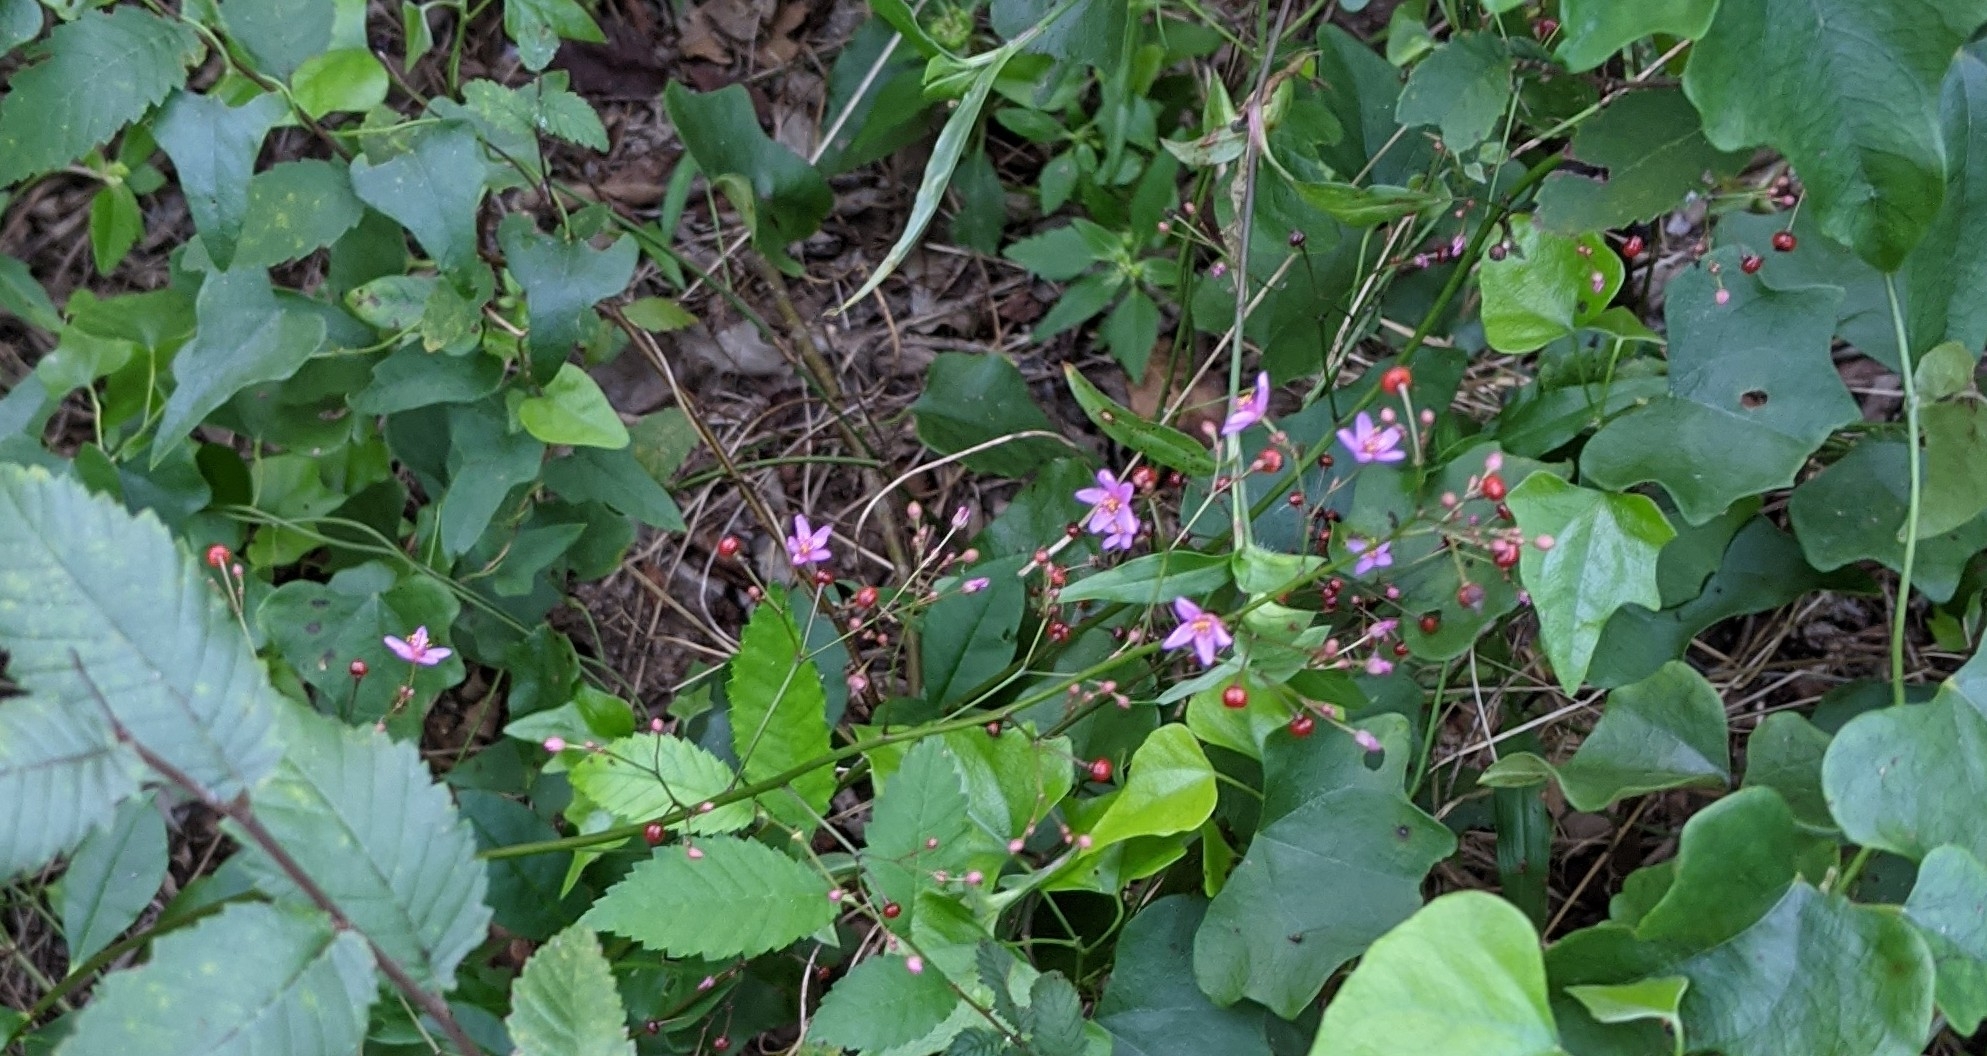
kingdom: Plantae
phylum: Tracheophyta
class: Magnoliopsida
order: Caryophyllales
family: Talinaceae
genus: Talinum
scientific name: Talinum paniculatum
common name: Jewels of opar
